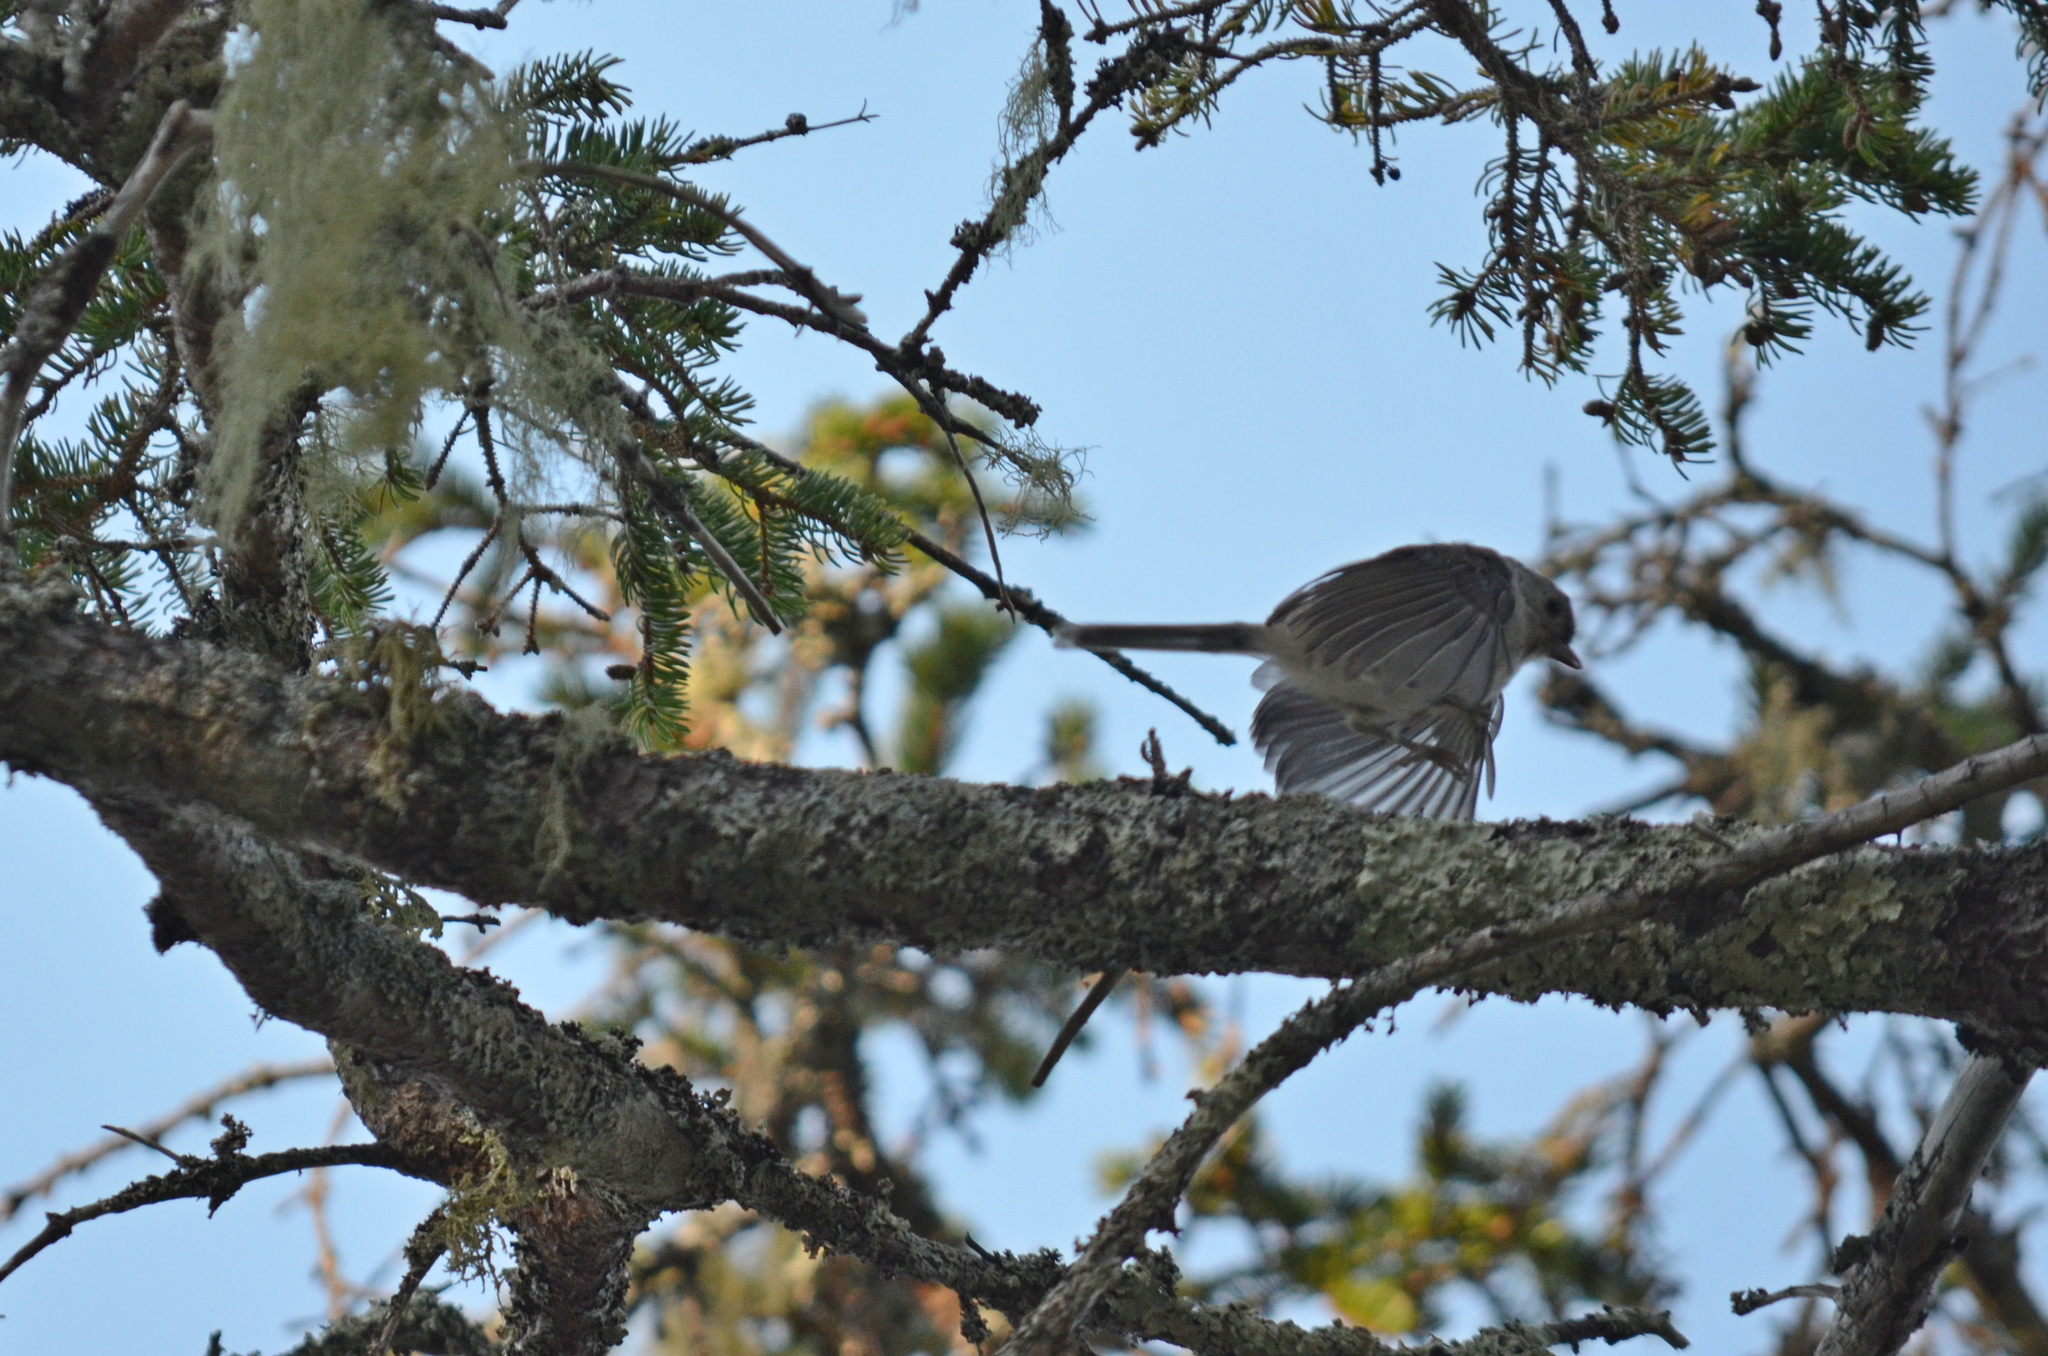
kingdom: Animalia
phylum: Chordata
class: Aves
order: Passeriformes
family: Paridae
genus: Baeolophus
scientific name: Baeolophus bicolor
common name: Tufted titmouse
